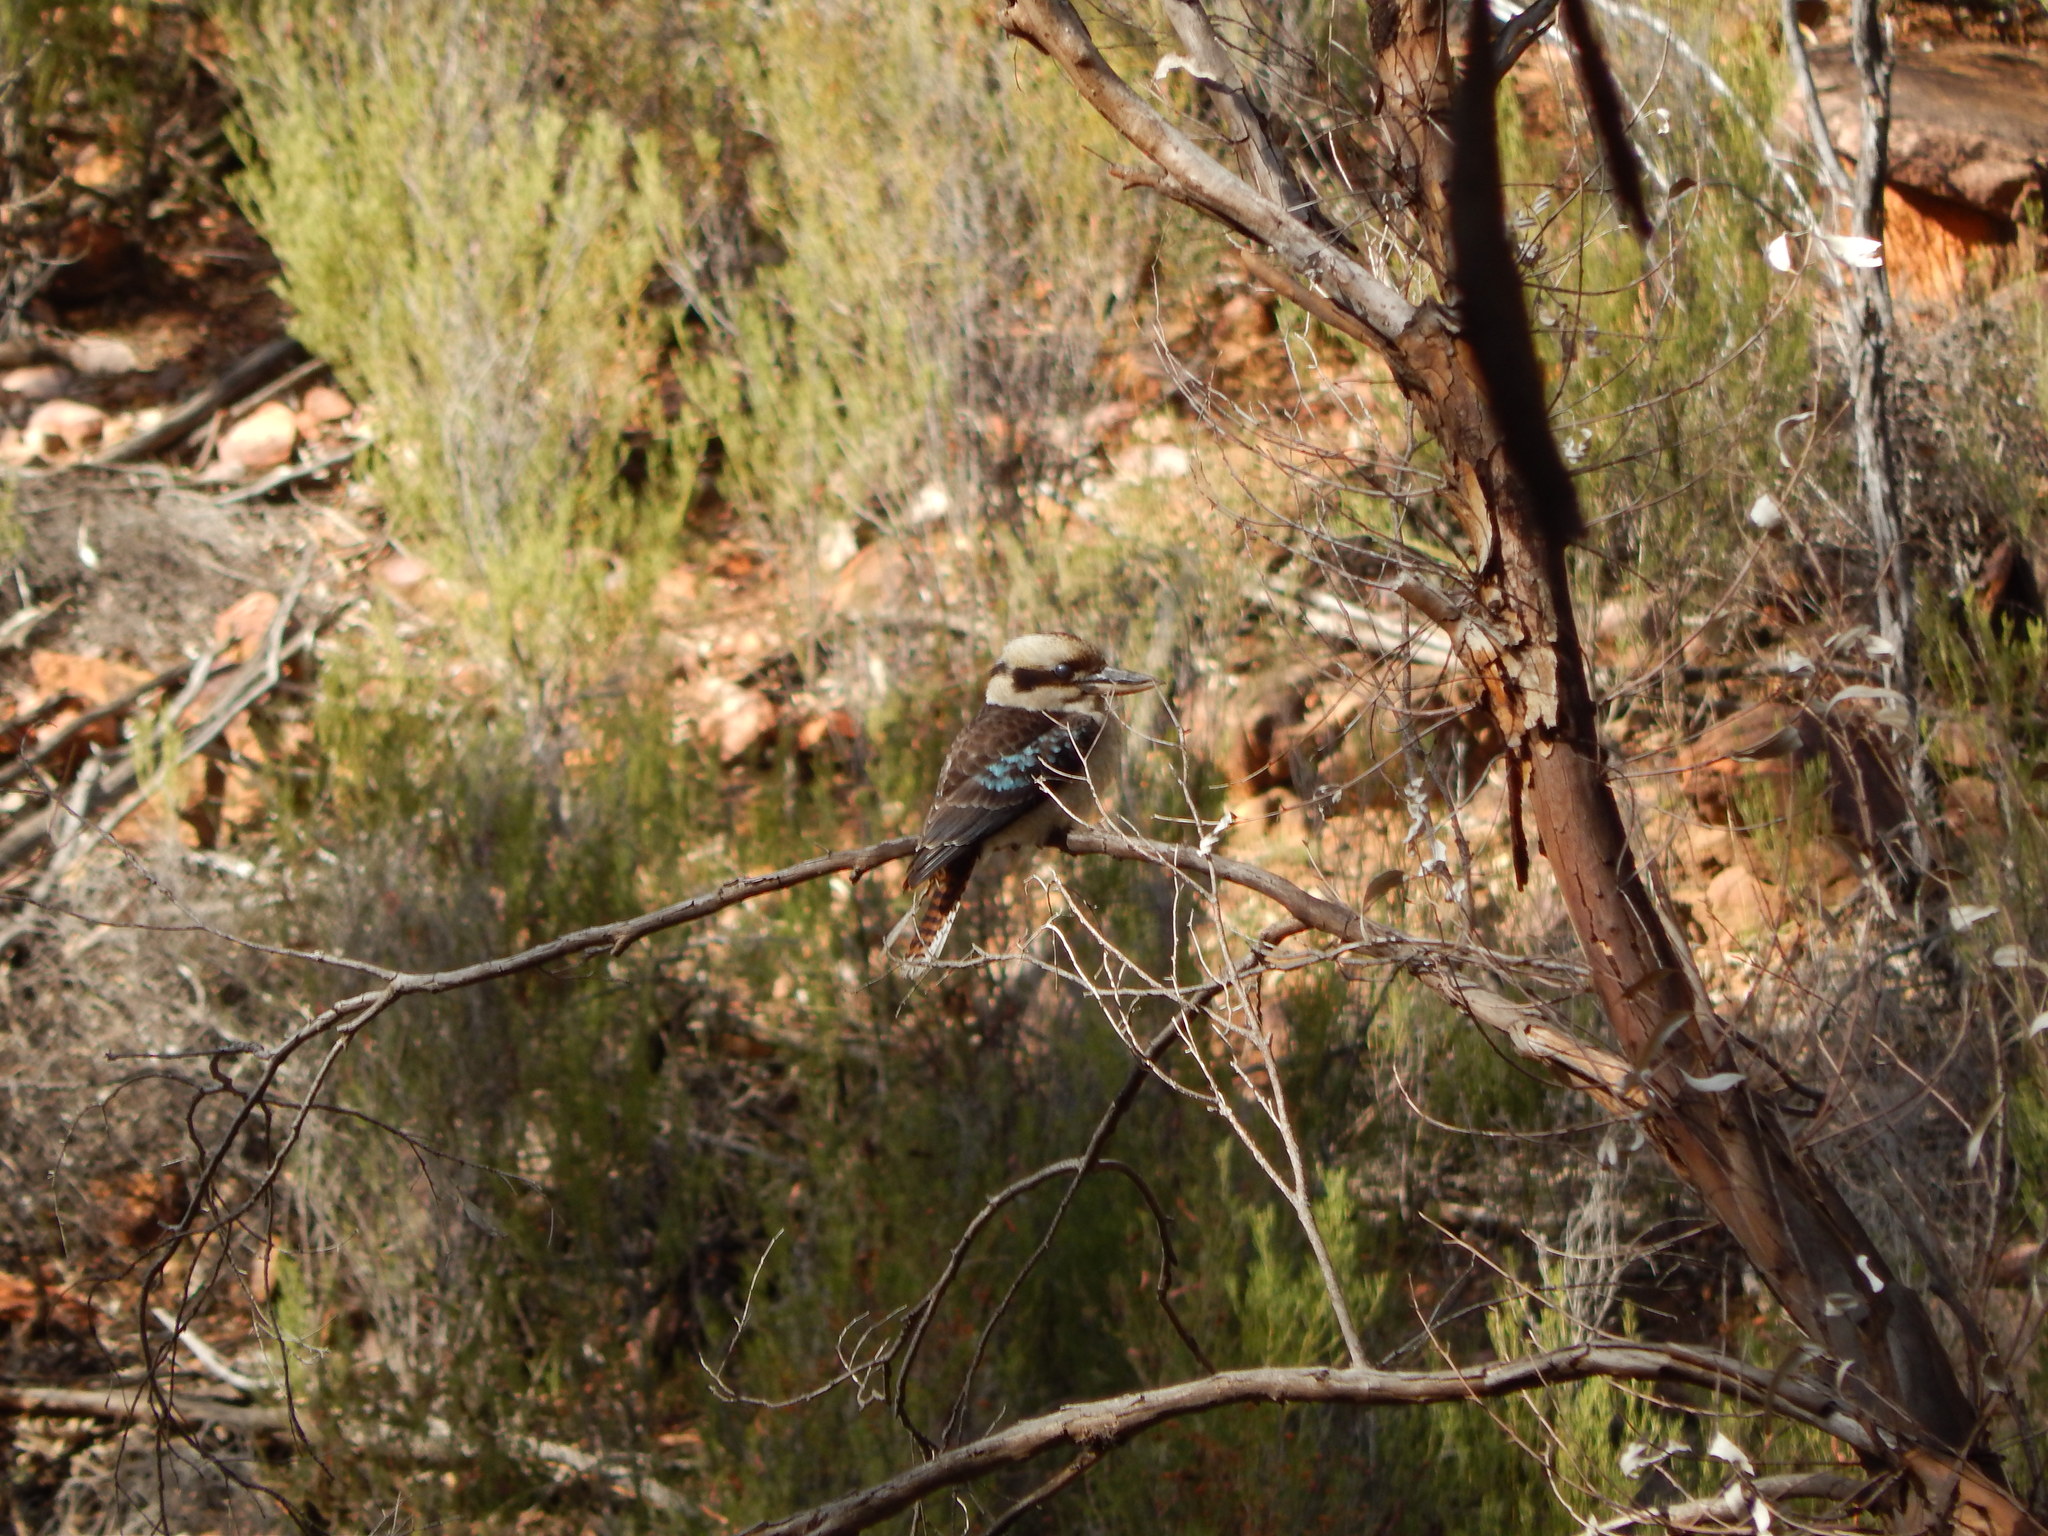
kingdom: Animalia
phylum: Chordata
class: Aves
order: Coraciiformes
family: Alcedinidae
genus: Dacelo
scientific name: Dacelo novaeguineae
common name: Laughing kookaburra
